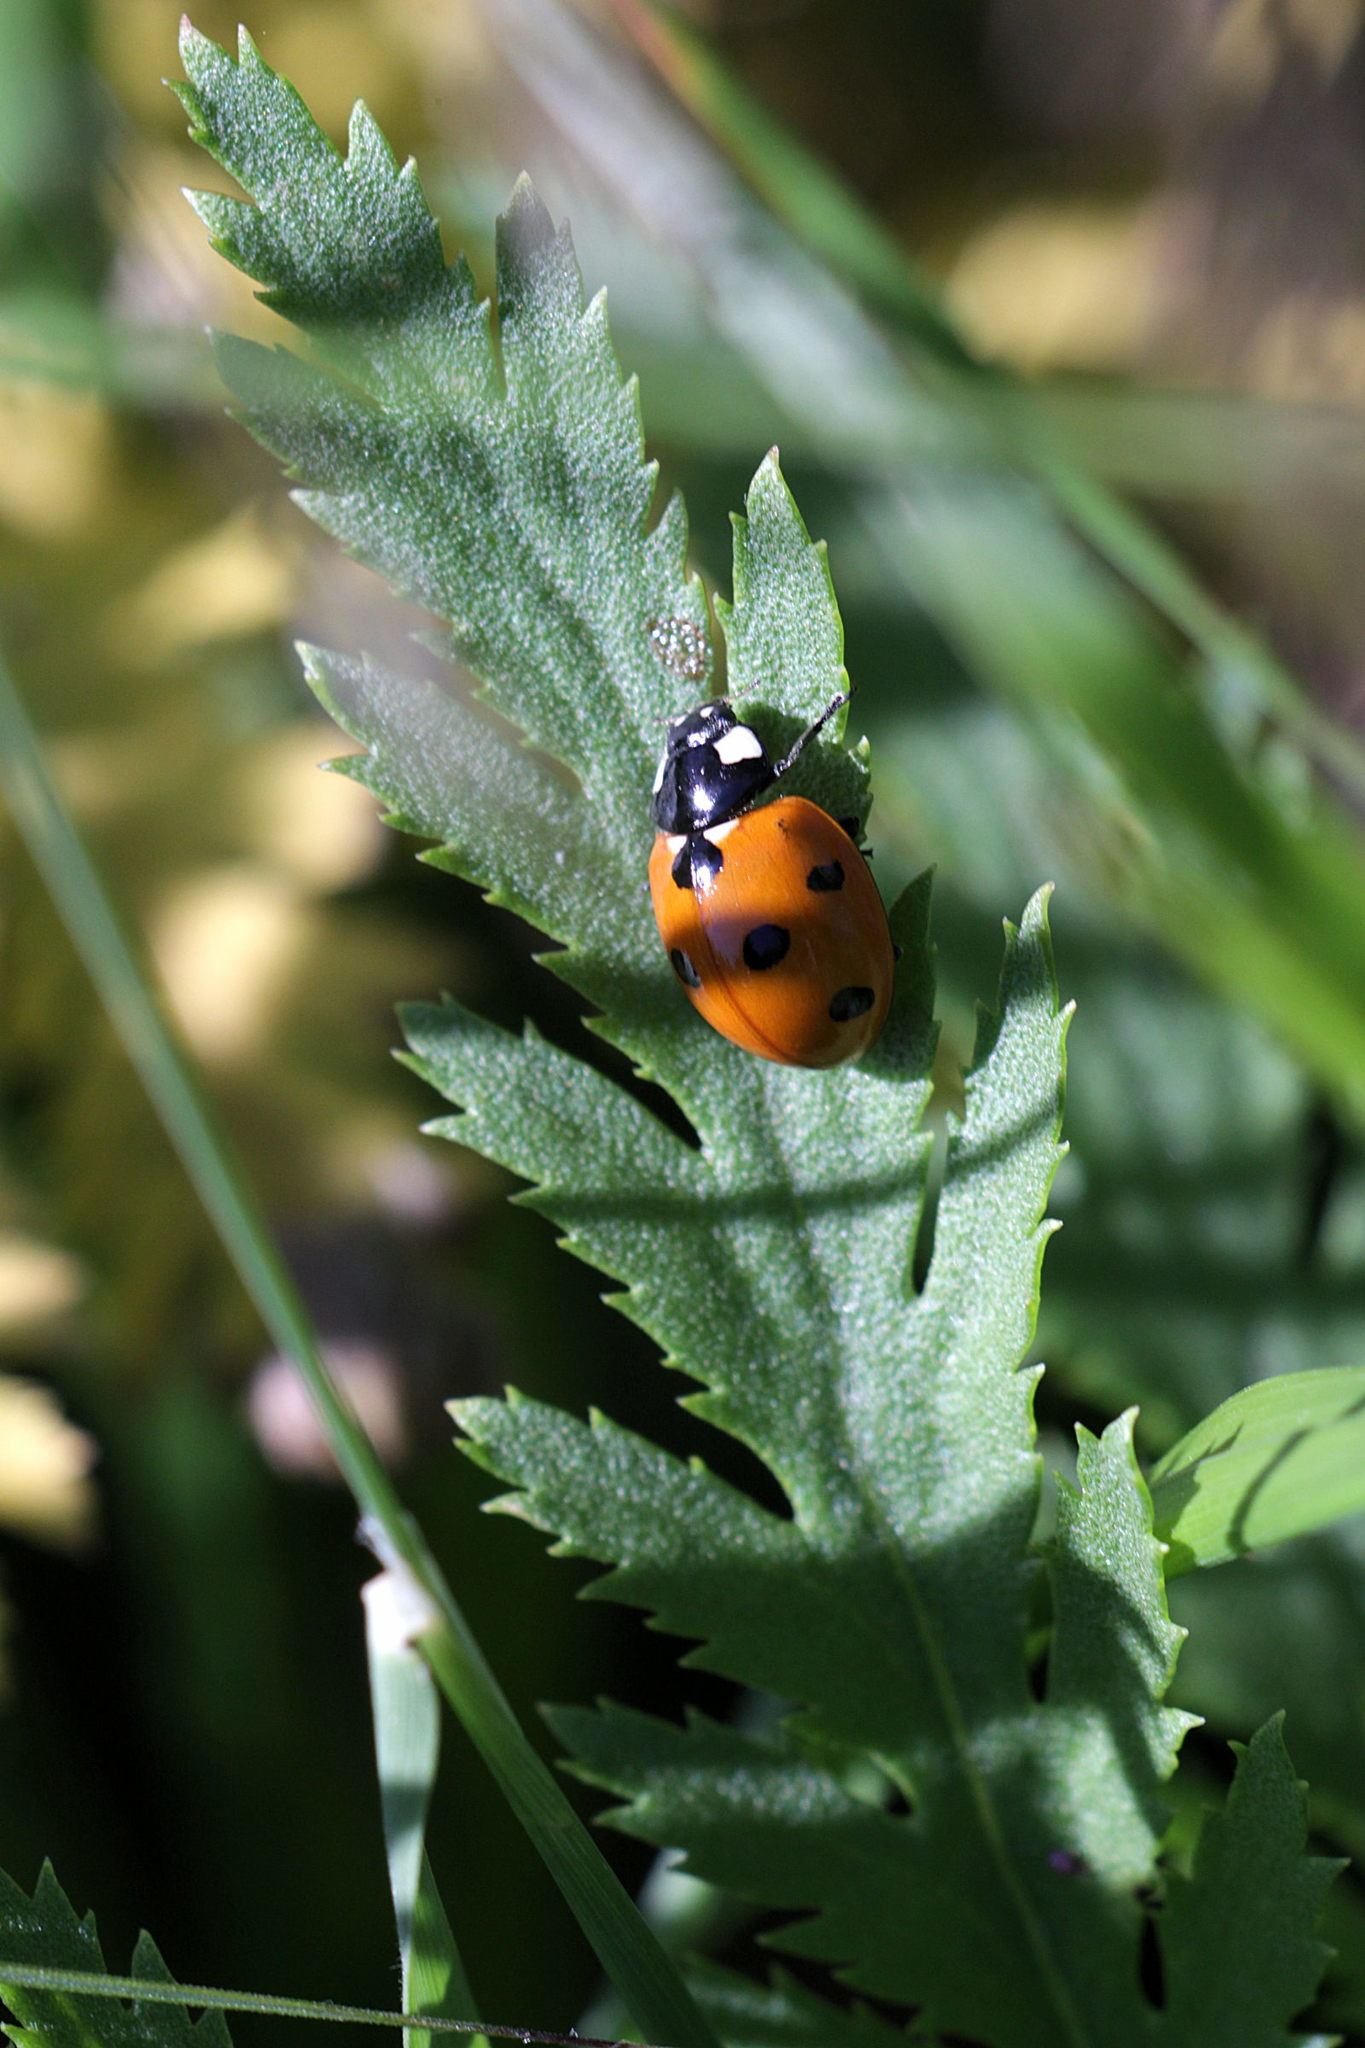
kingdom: Animalia
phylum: Arthropoda
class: Insecta
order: Coleoptera
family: Coccinellidae
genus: Coccinella
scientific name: Coccinella septempunctata
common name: Sevenspotted lady beetle
